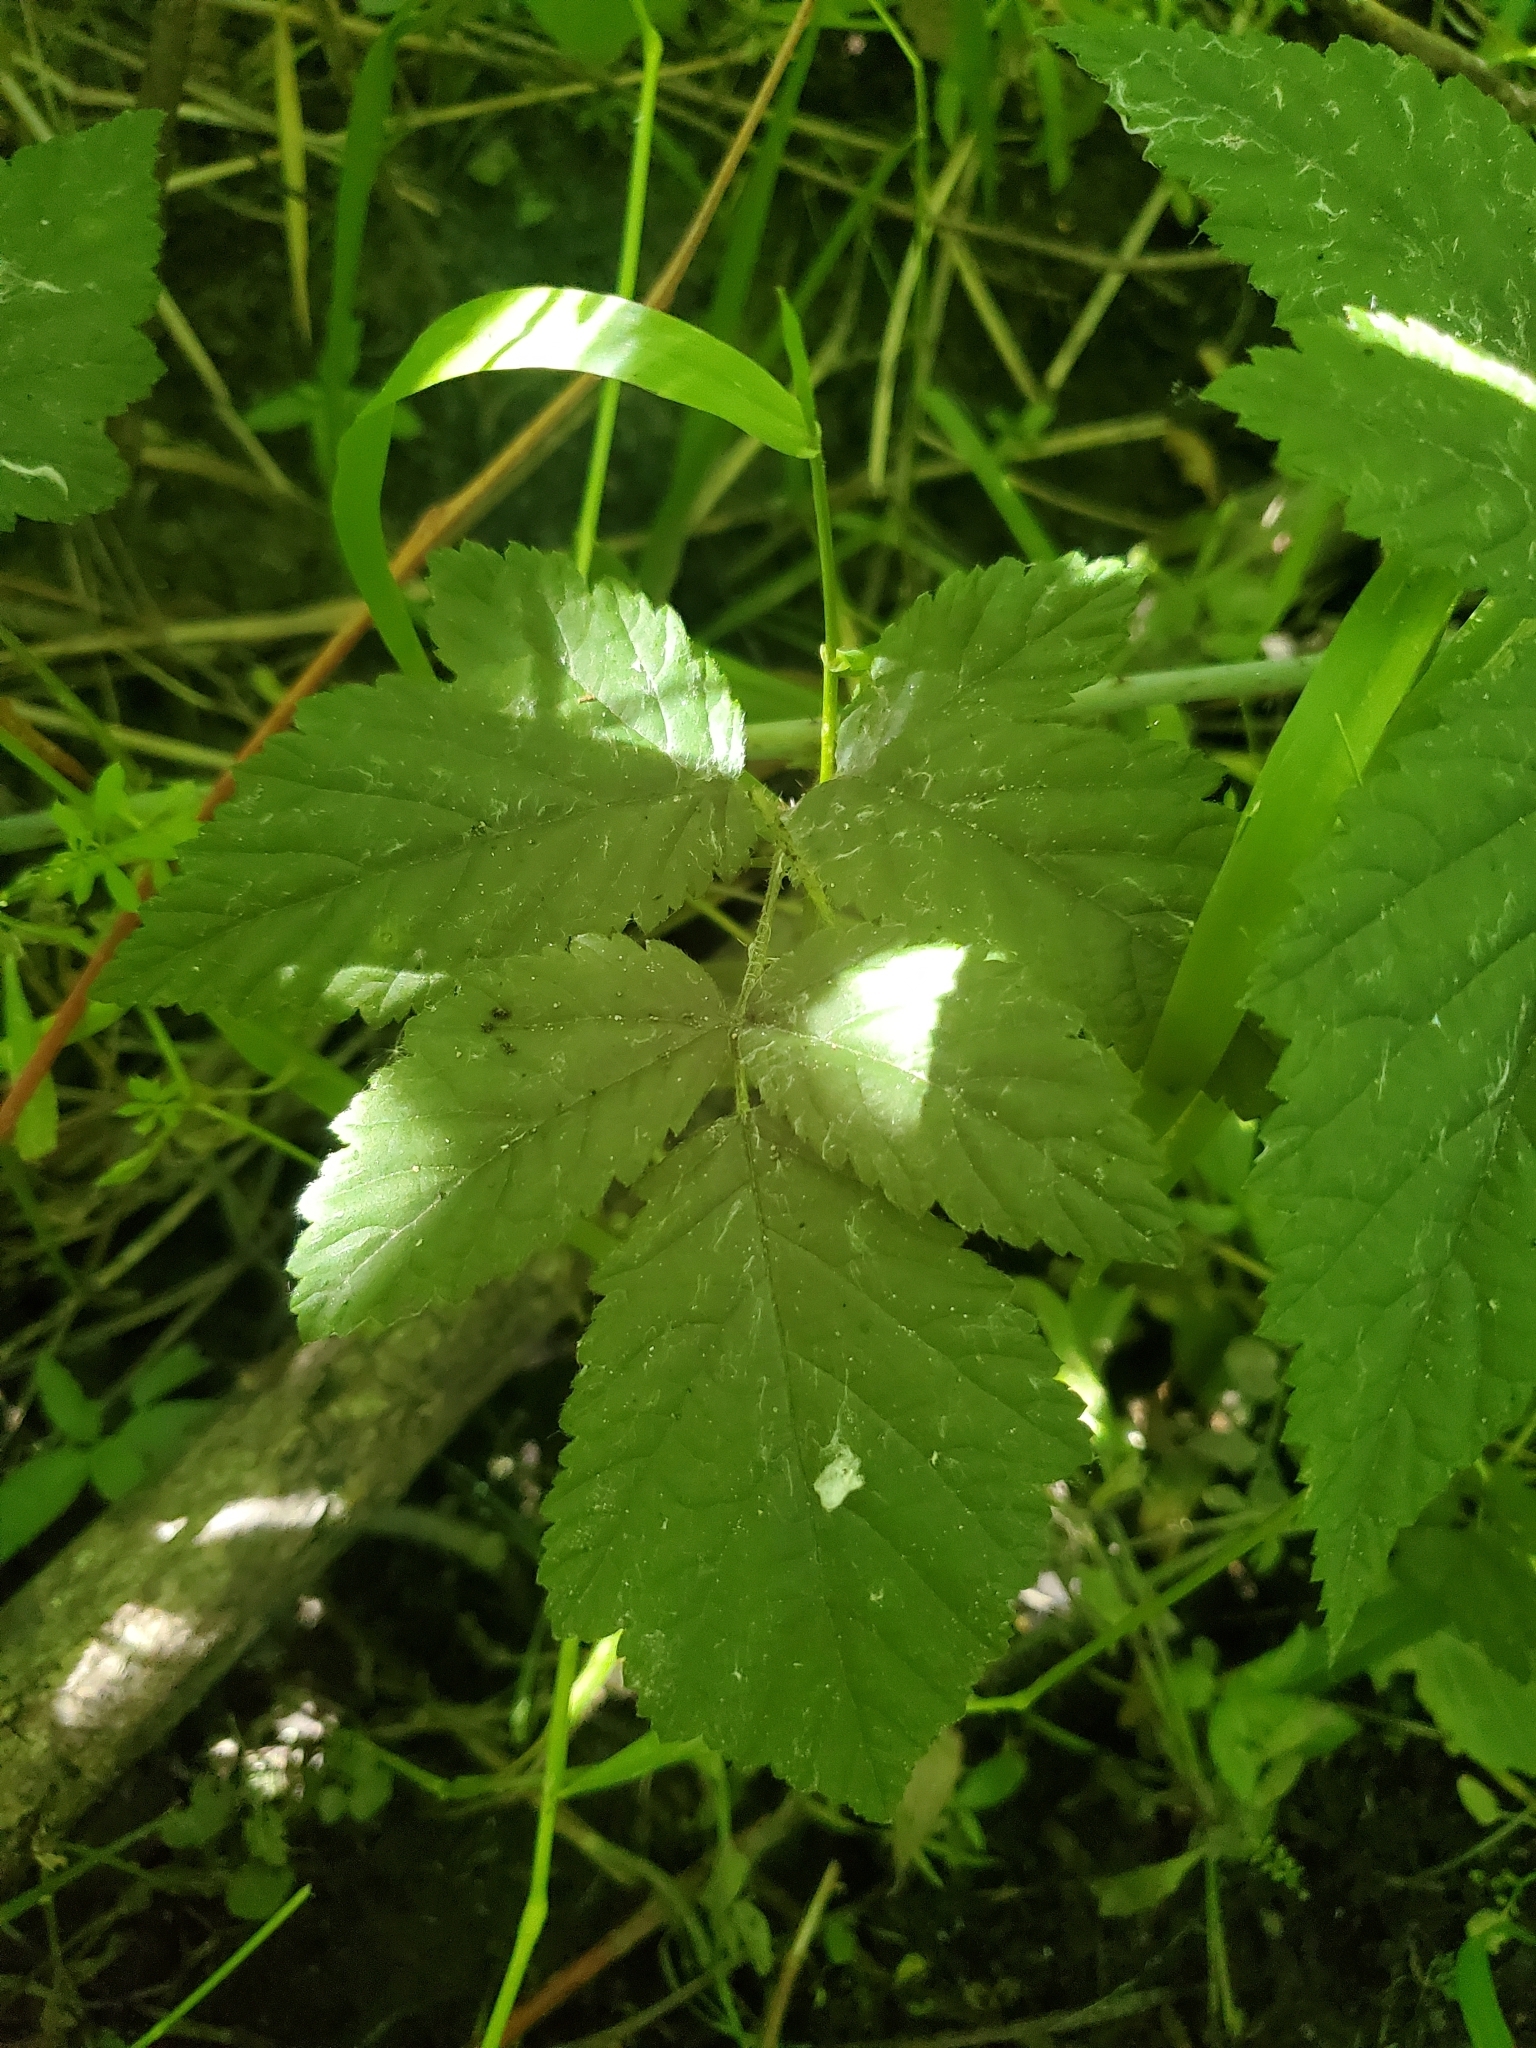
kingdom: Plantae
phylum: Tracheophyta
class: Magnoliopsida
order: Rosales
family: Rosaceae
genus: Rubus
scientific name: Rubus spectabilis
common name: Salmonberry
